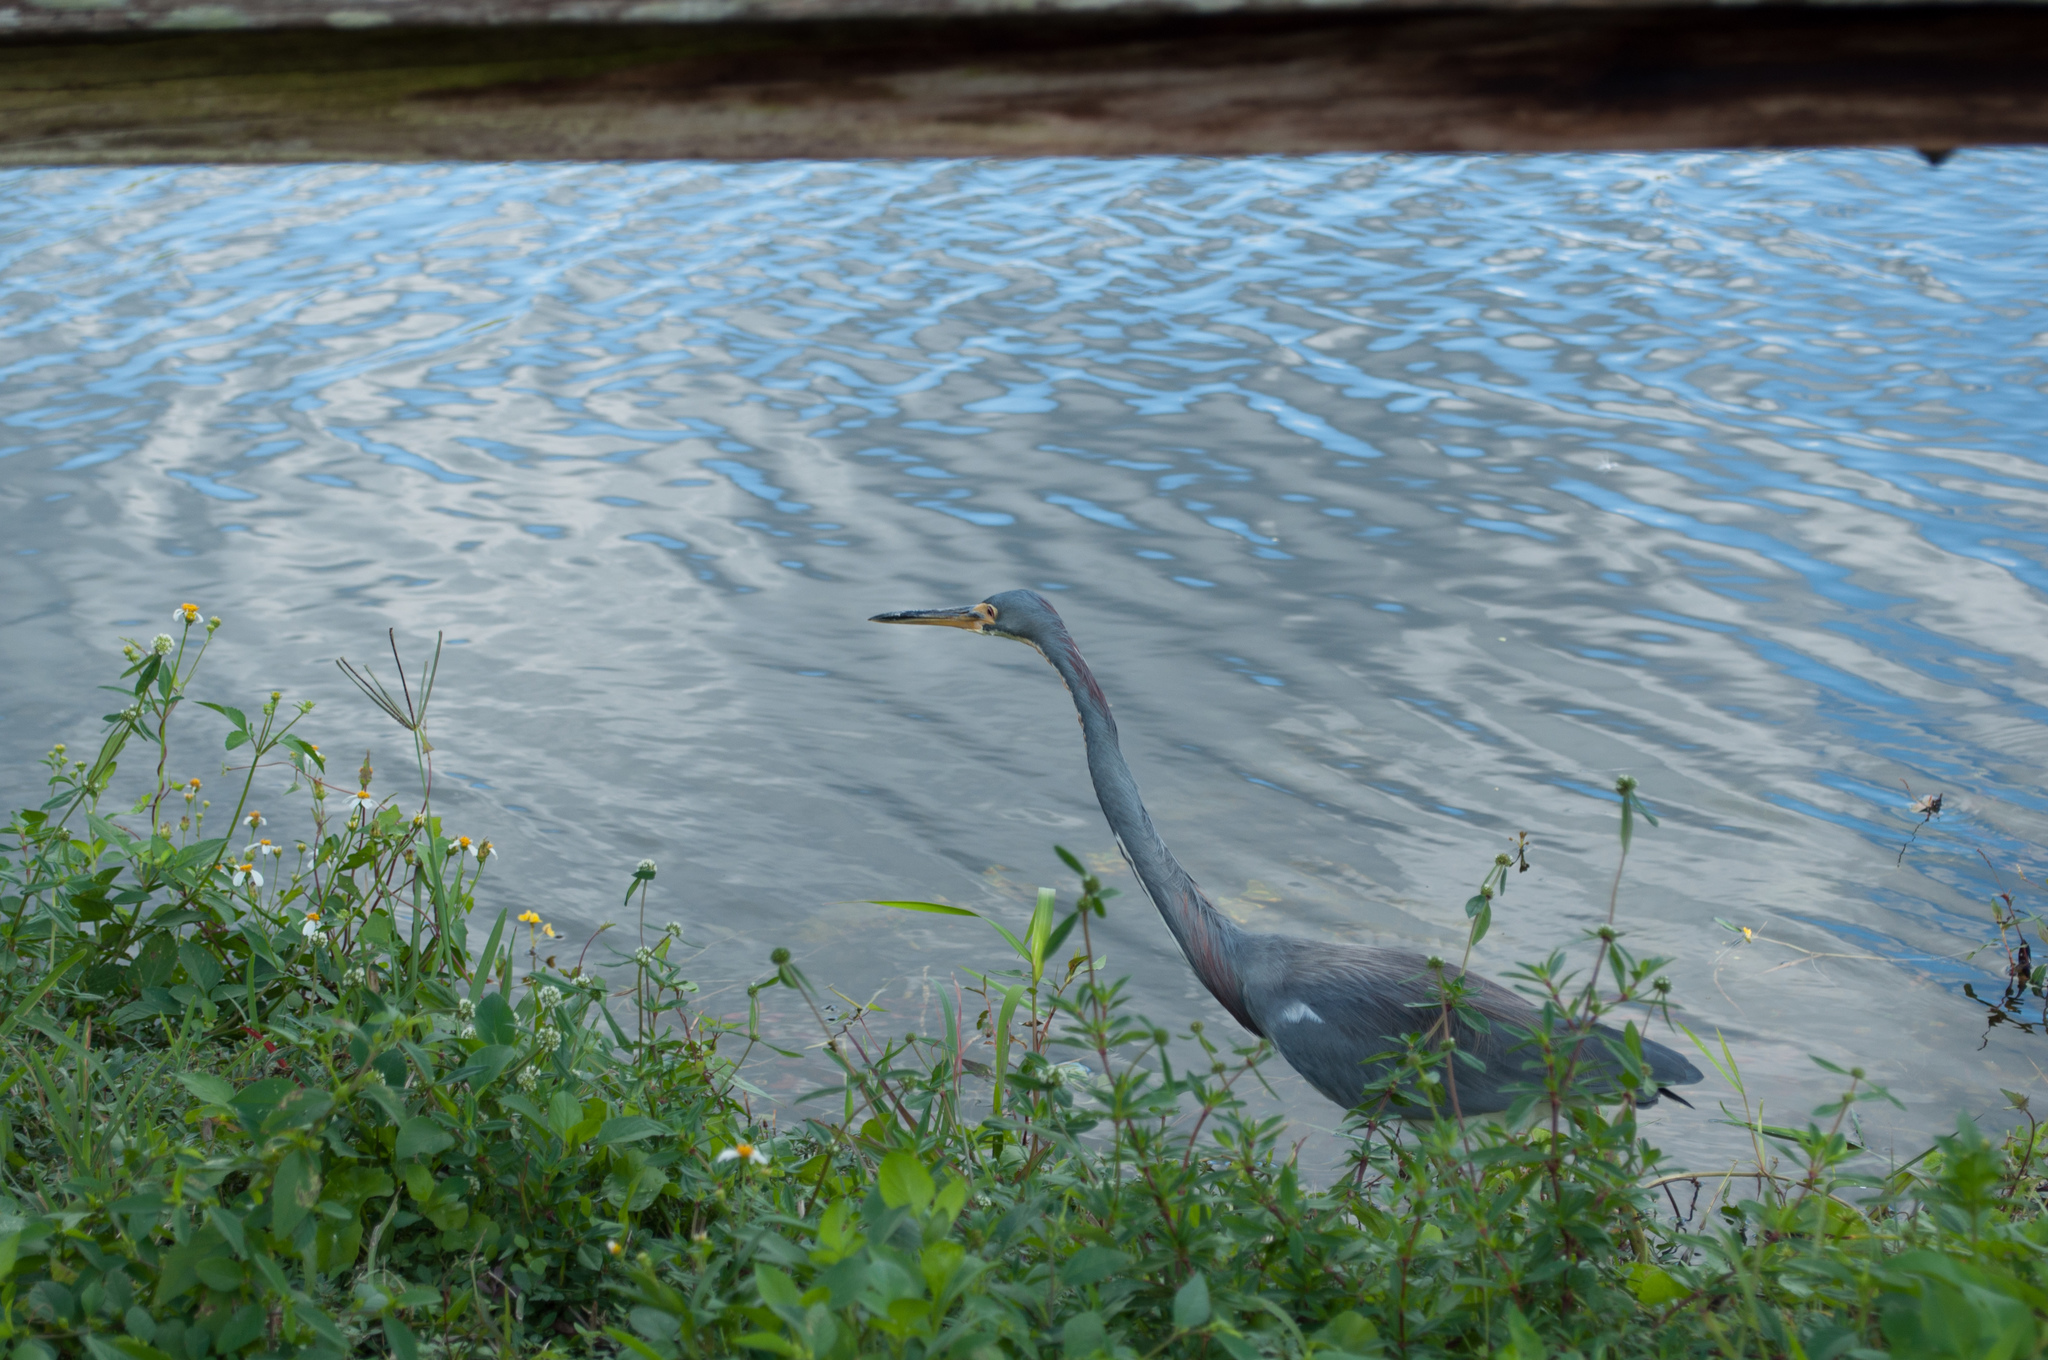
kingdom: Animalia
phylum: Chordata
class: Aves
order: Pelecaniformes
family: Ardeidae
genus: Egretta
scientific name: Egretta tricolor
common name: Tricolored heron
